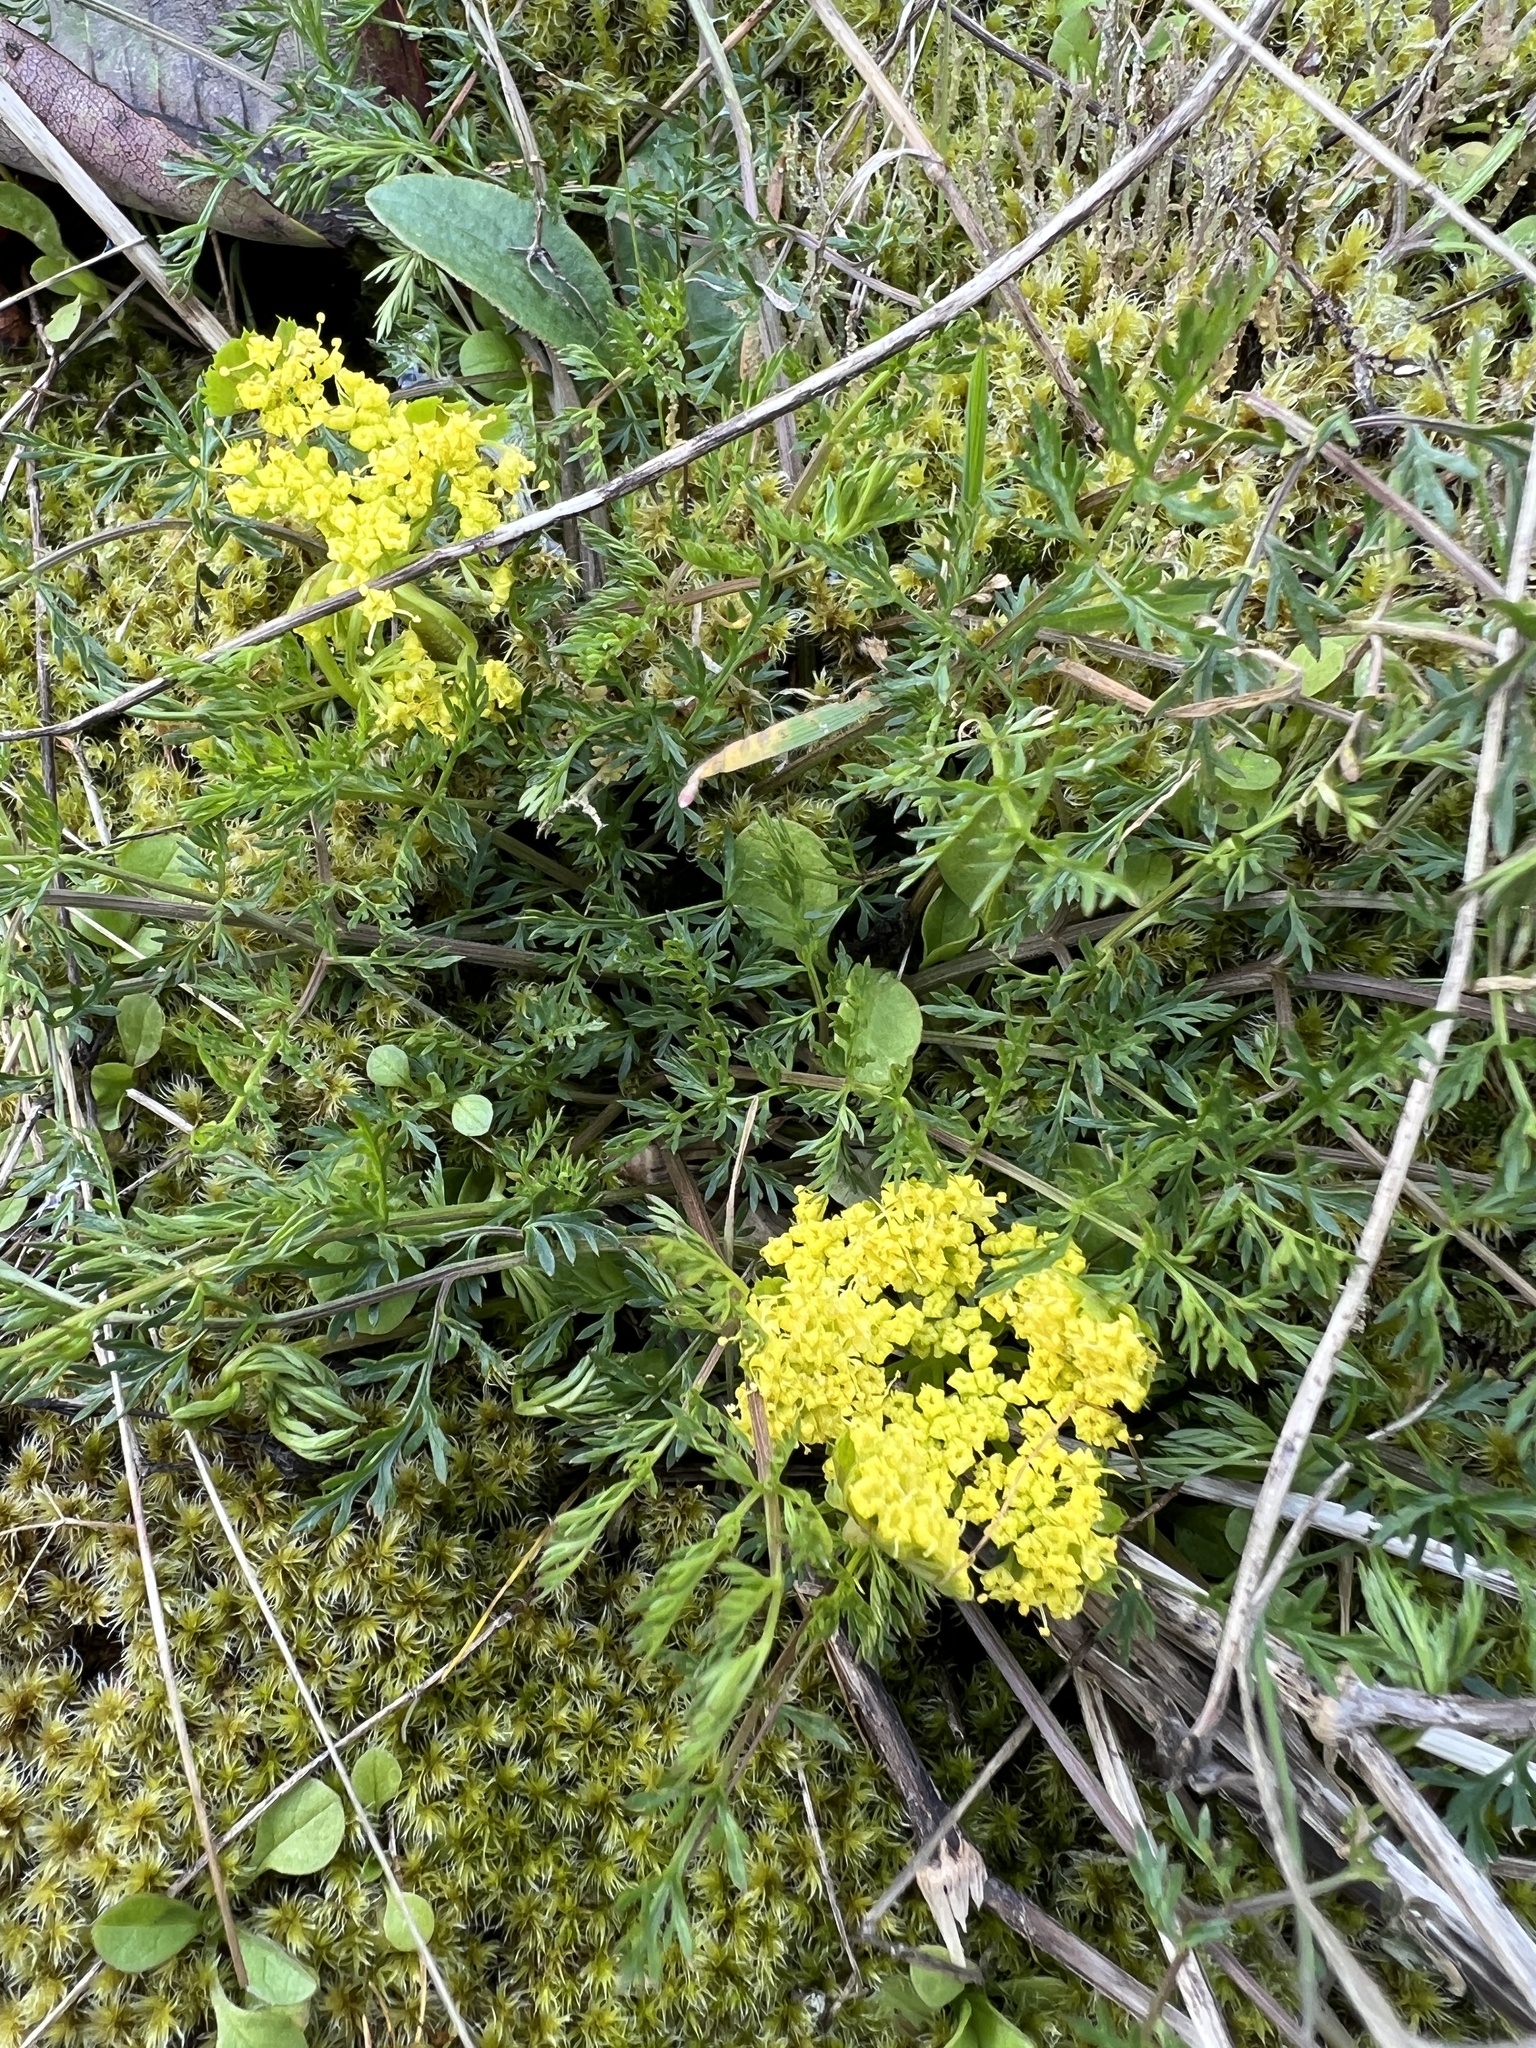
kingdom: Plantae
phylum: Tracheophyta
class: Magnoliopsida
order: Apiales
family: Apiaceae
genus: Lomatium
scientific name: Lomatium utriculatum
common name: Fine-leaf desert-parsley
